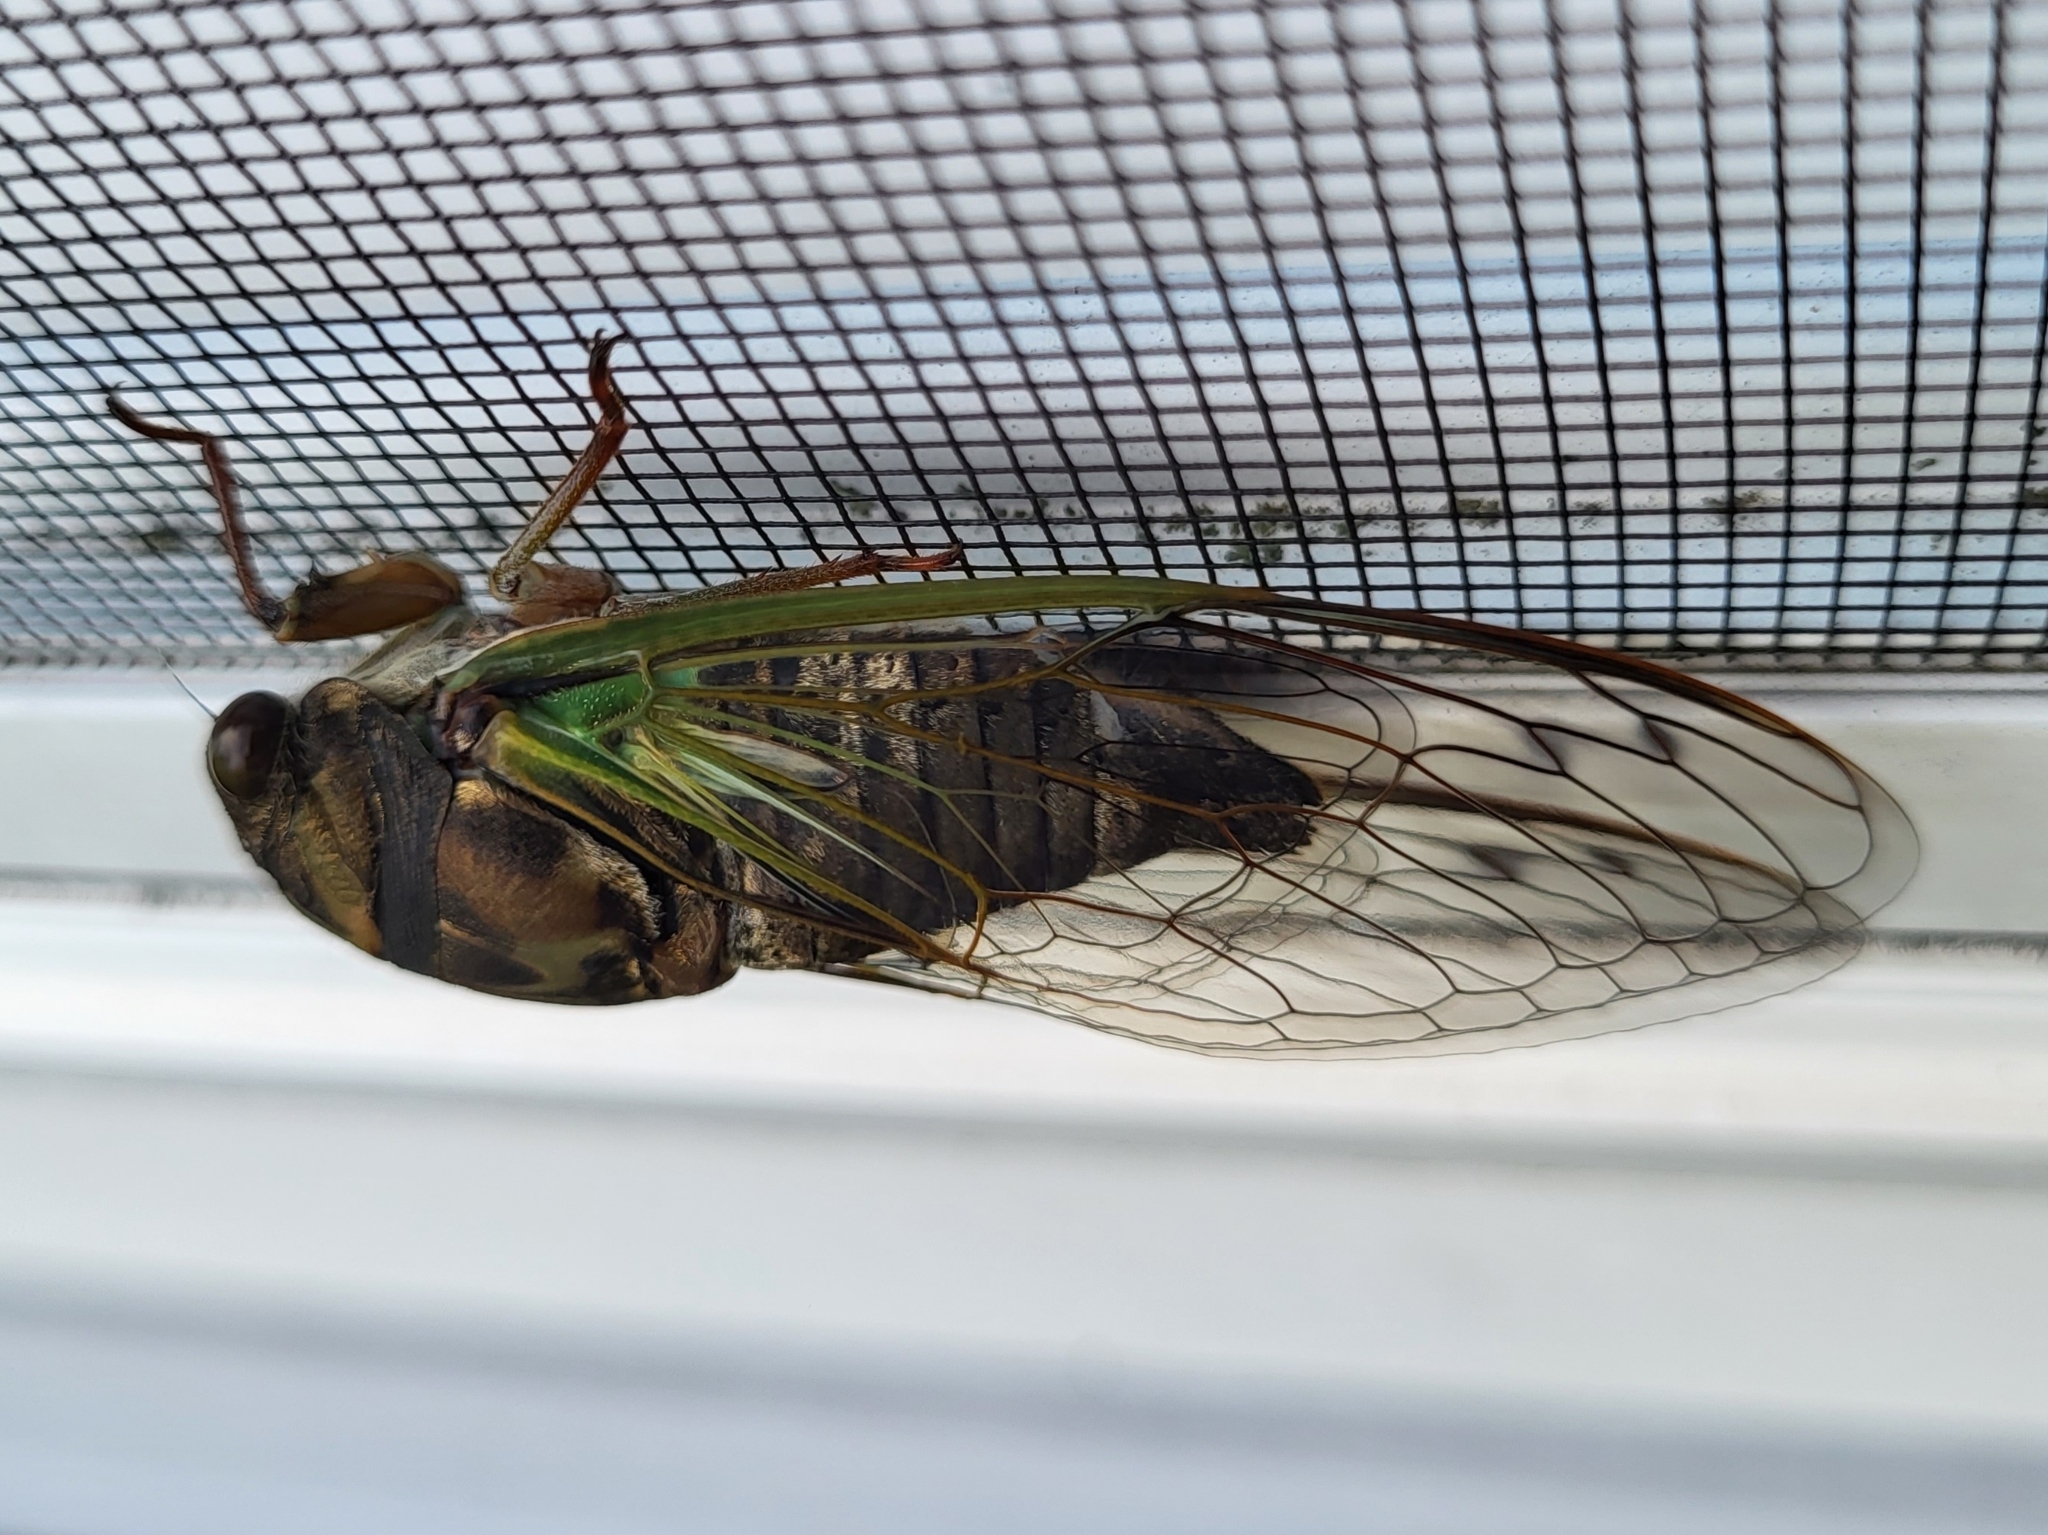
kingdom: Animalia
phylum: Arthropoda
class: Insecta
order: Hemiptera
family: Cicadidae
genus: Neotibicen
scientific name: Neotibicen lyricen
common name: Lyric cicada
